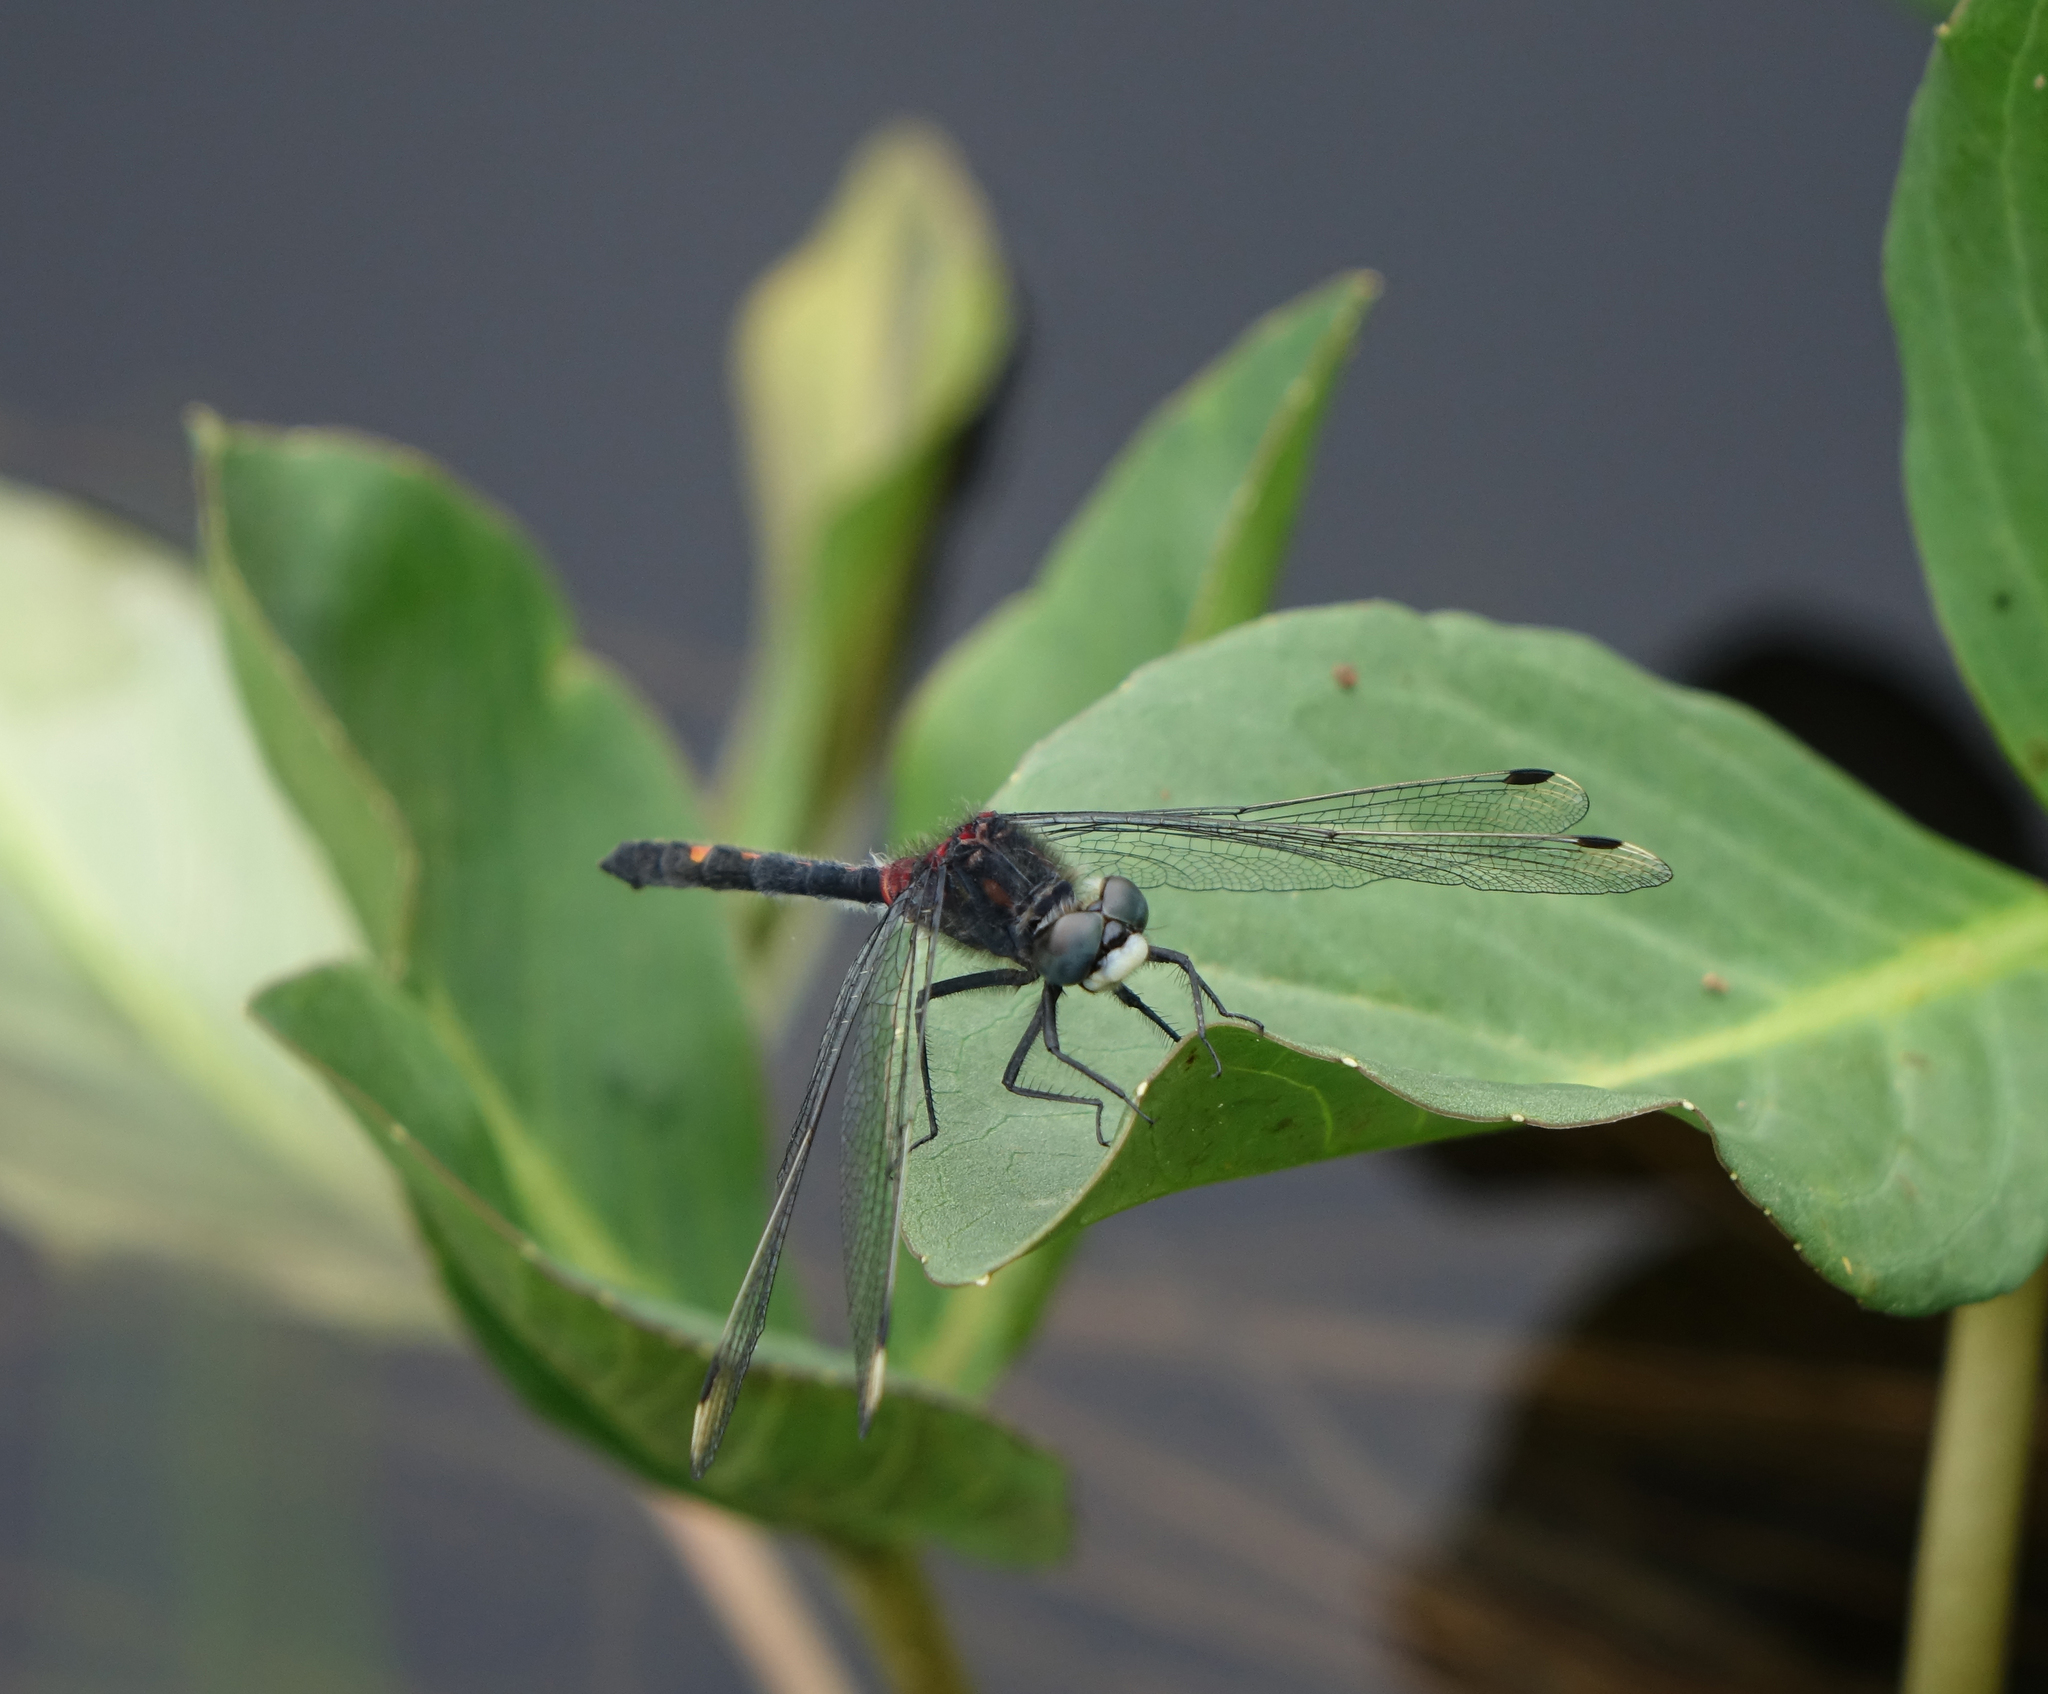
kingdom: Plantae
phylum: Tracheophyta
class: Magnoliopsida
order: Asterales
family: Menyanthaceae
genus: Menyanthes
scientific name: Menyanthes trifoliata
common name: Bogbean
